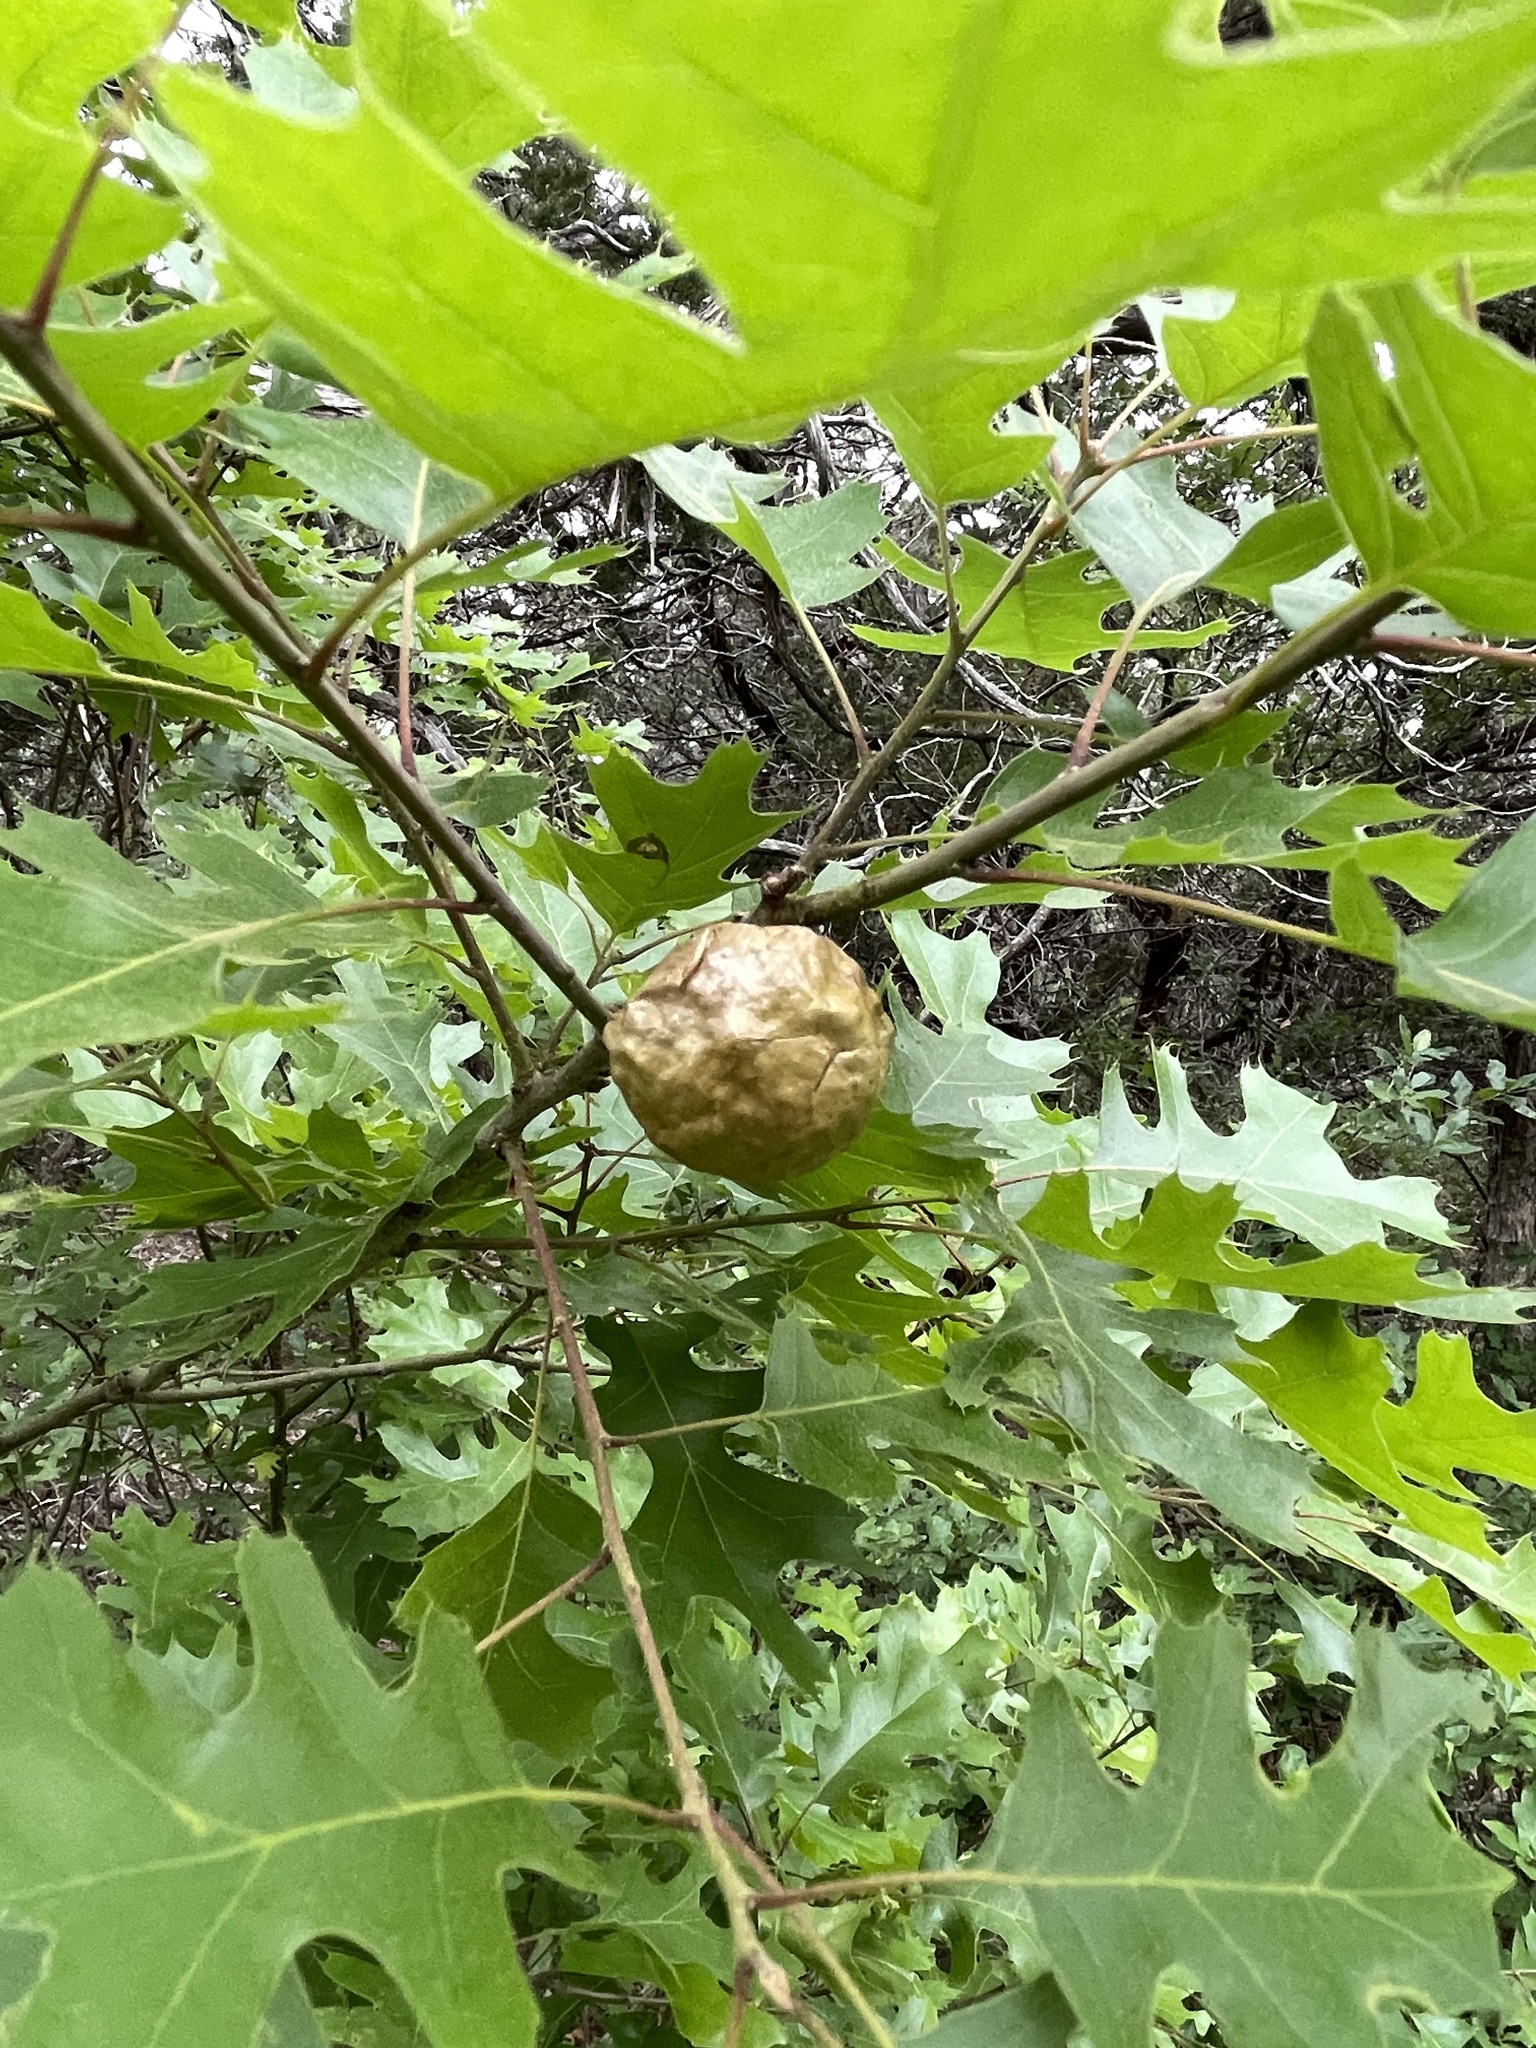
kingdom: Animalia
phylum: Arthropoda
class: Insecta
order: Hymenoptera
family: Cynipidae
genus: Amphibolips
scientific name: Amphibolips
